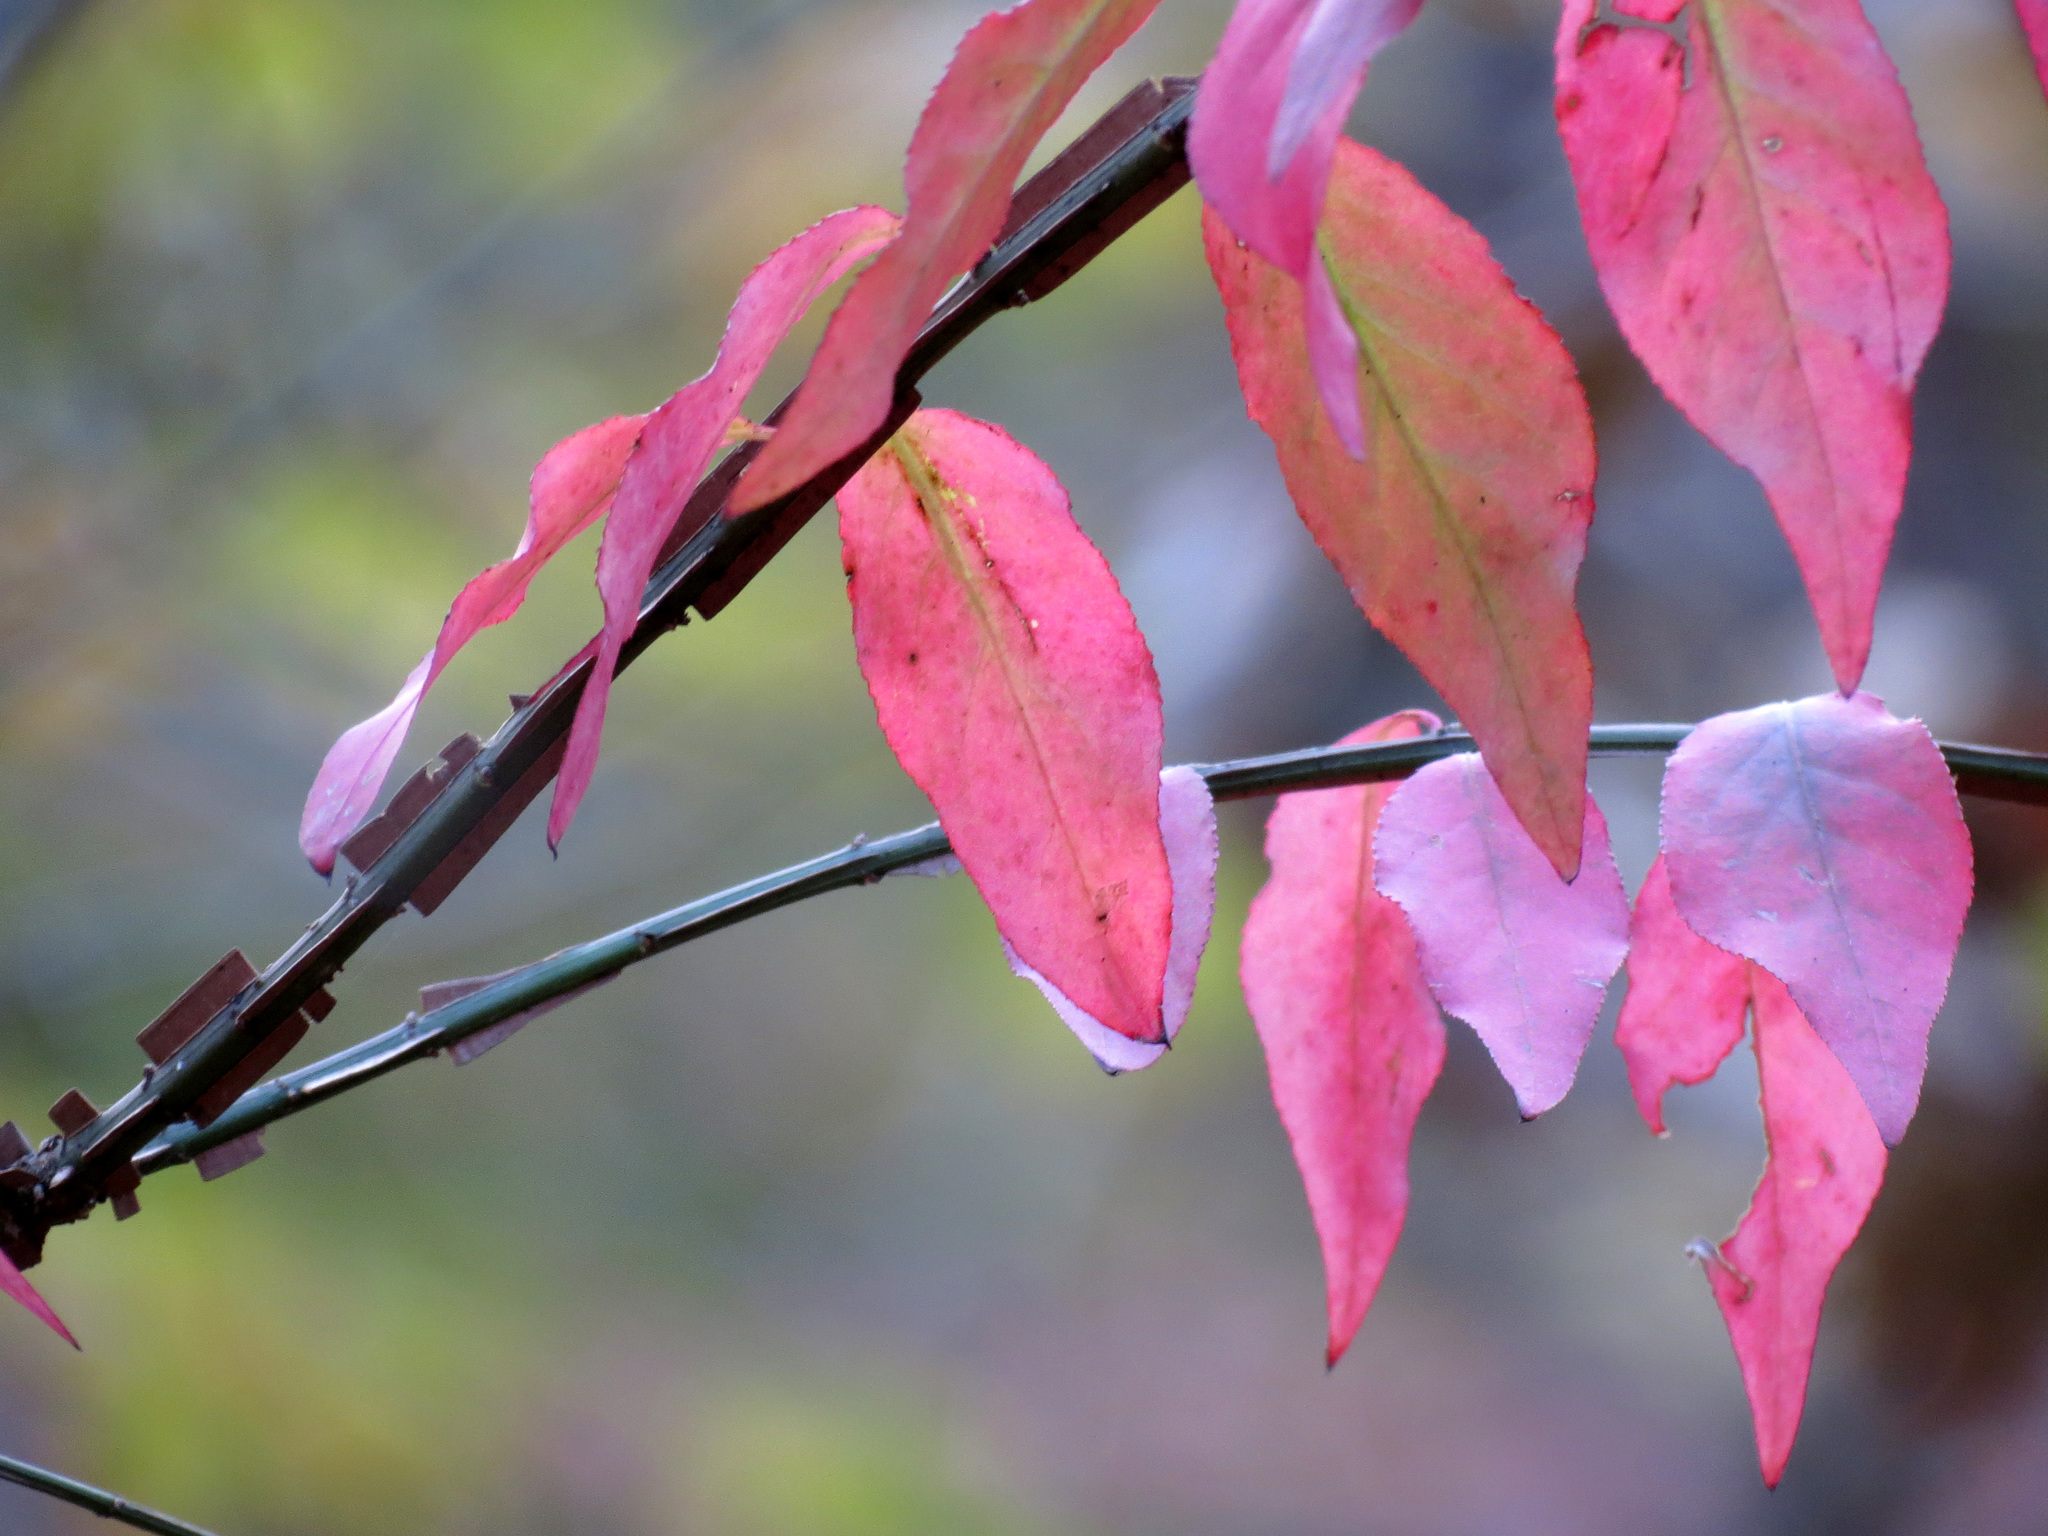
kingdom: Plantae
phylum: Tracheophyta
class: Magnoliopsida
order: Celastrales
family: Celastraceae
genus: Euonymus
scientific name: Euonymus alatus
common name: Winged euonymus
